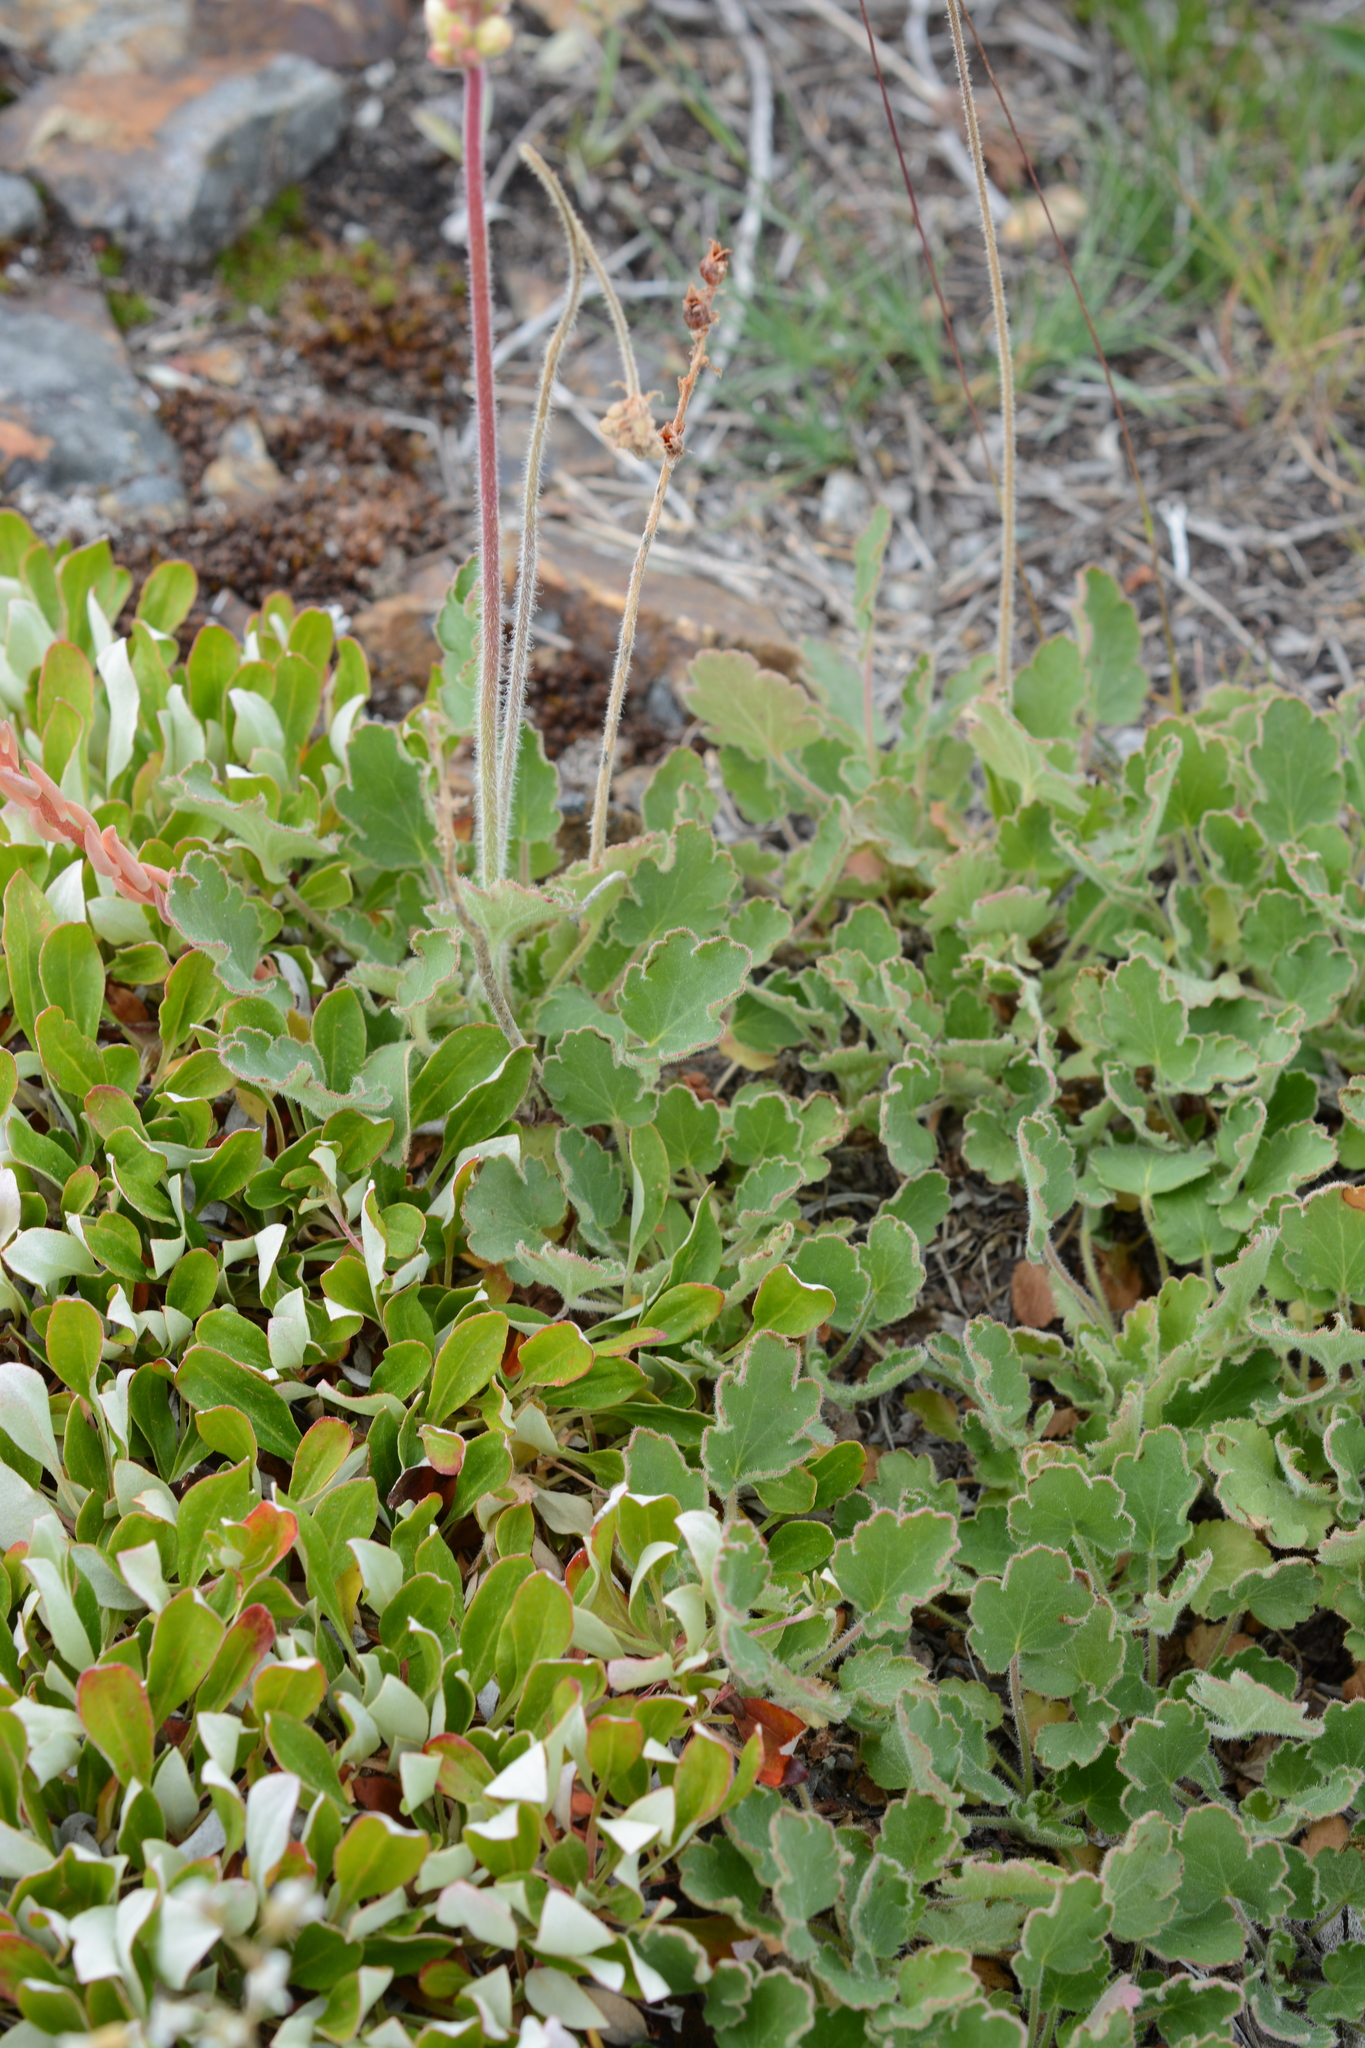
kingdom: Plantae
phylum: Tracheophyta
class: Magnoliopsida
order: Saxifragales
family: Saxifragaceae
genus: Heuchera
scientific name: Heuchera cylindrica
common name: Mat alumroot
